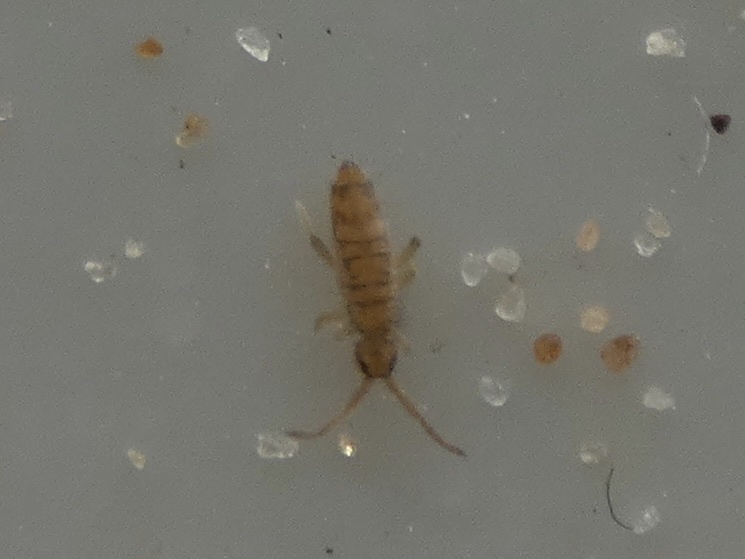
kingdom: Animalia
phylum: Arthropoda
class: Collembola
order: Entomobryomorpha
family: Entomobryidae
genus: Entomobrya
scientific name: Entomobrya multifasciata
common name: Springtail
